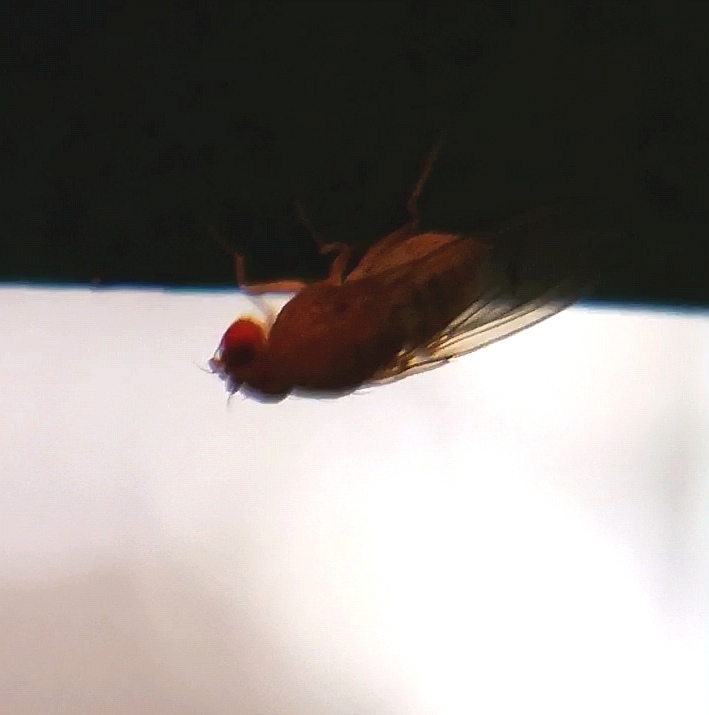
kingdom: Animalia
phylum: Arthropoda
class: Insecta
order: Diptera
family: Drosophilidae
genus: Drosophila
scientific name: Drosophila immigrans
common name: Pomace fly
